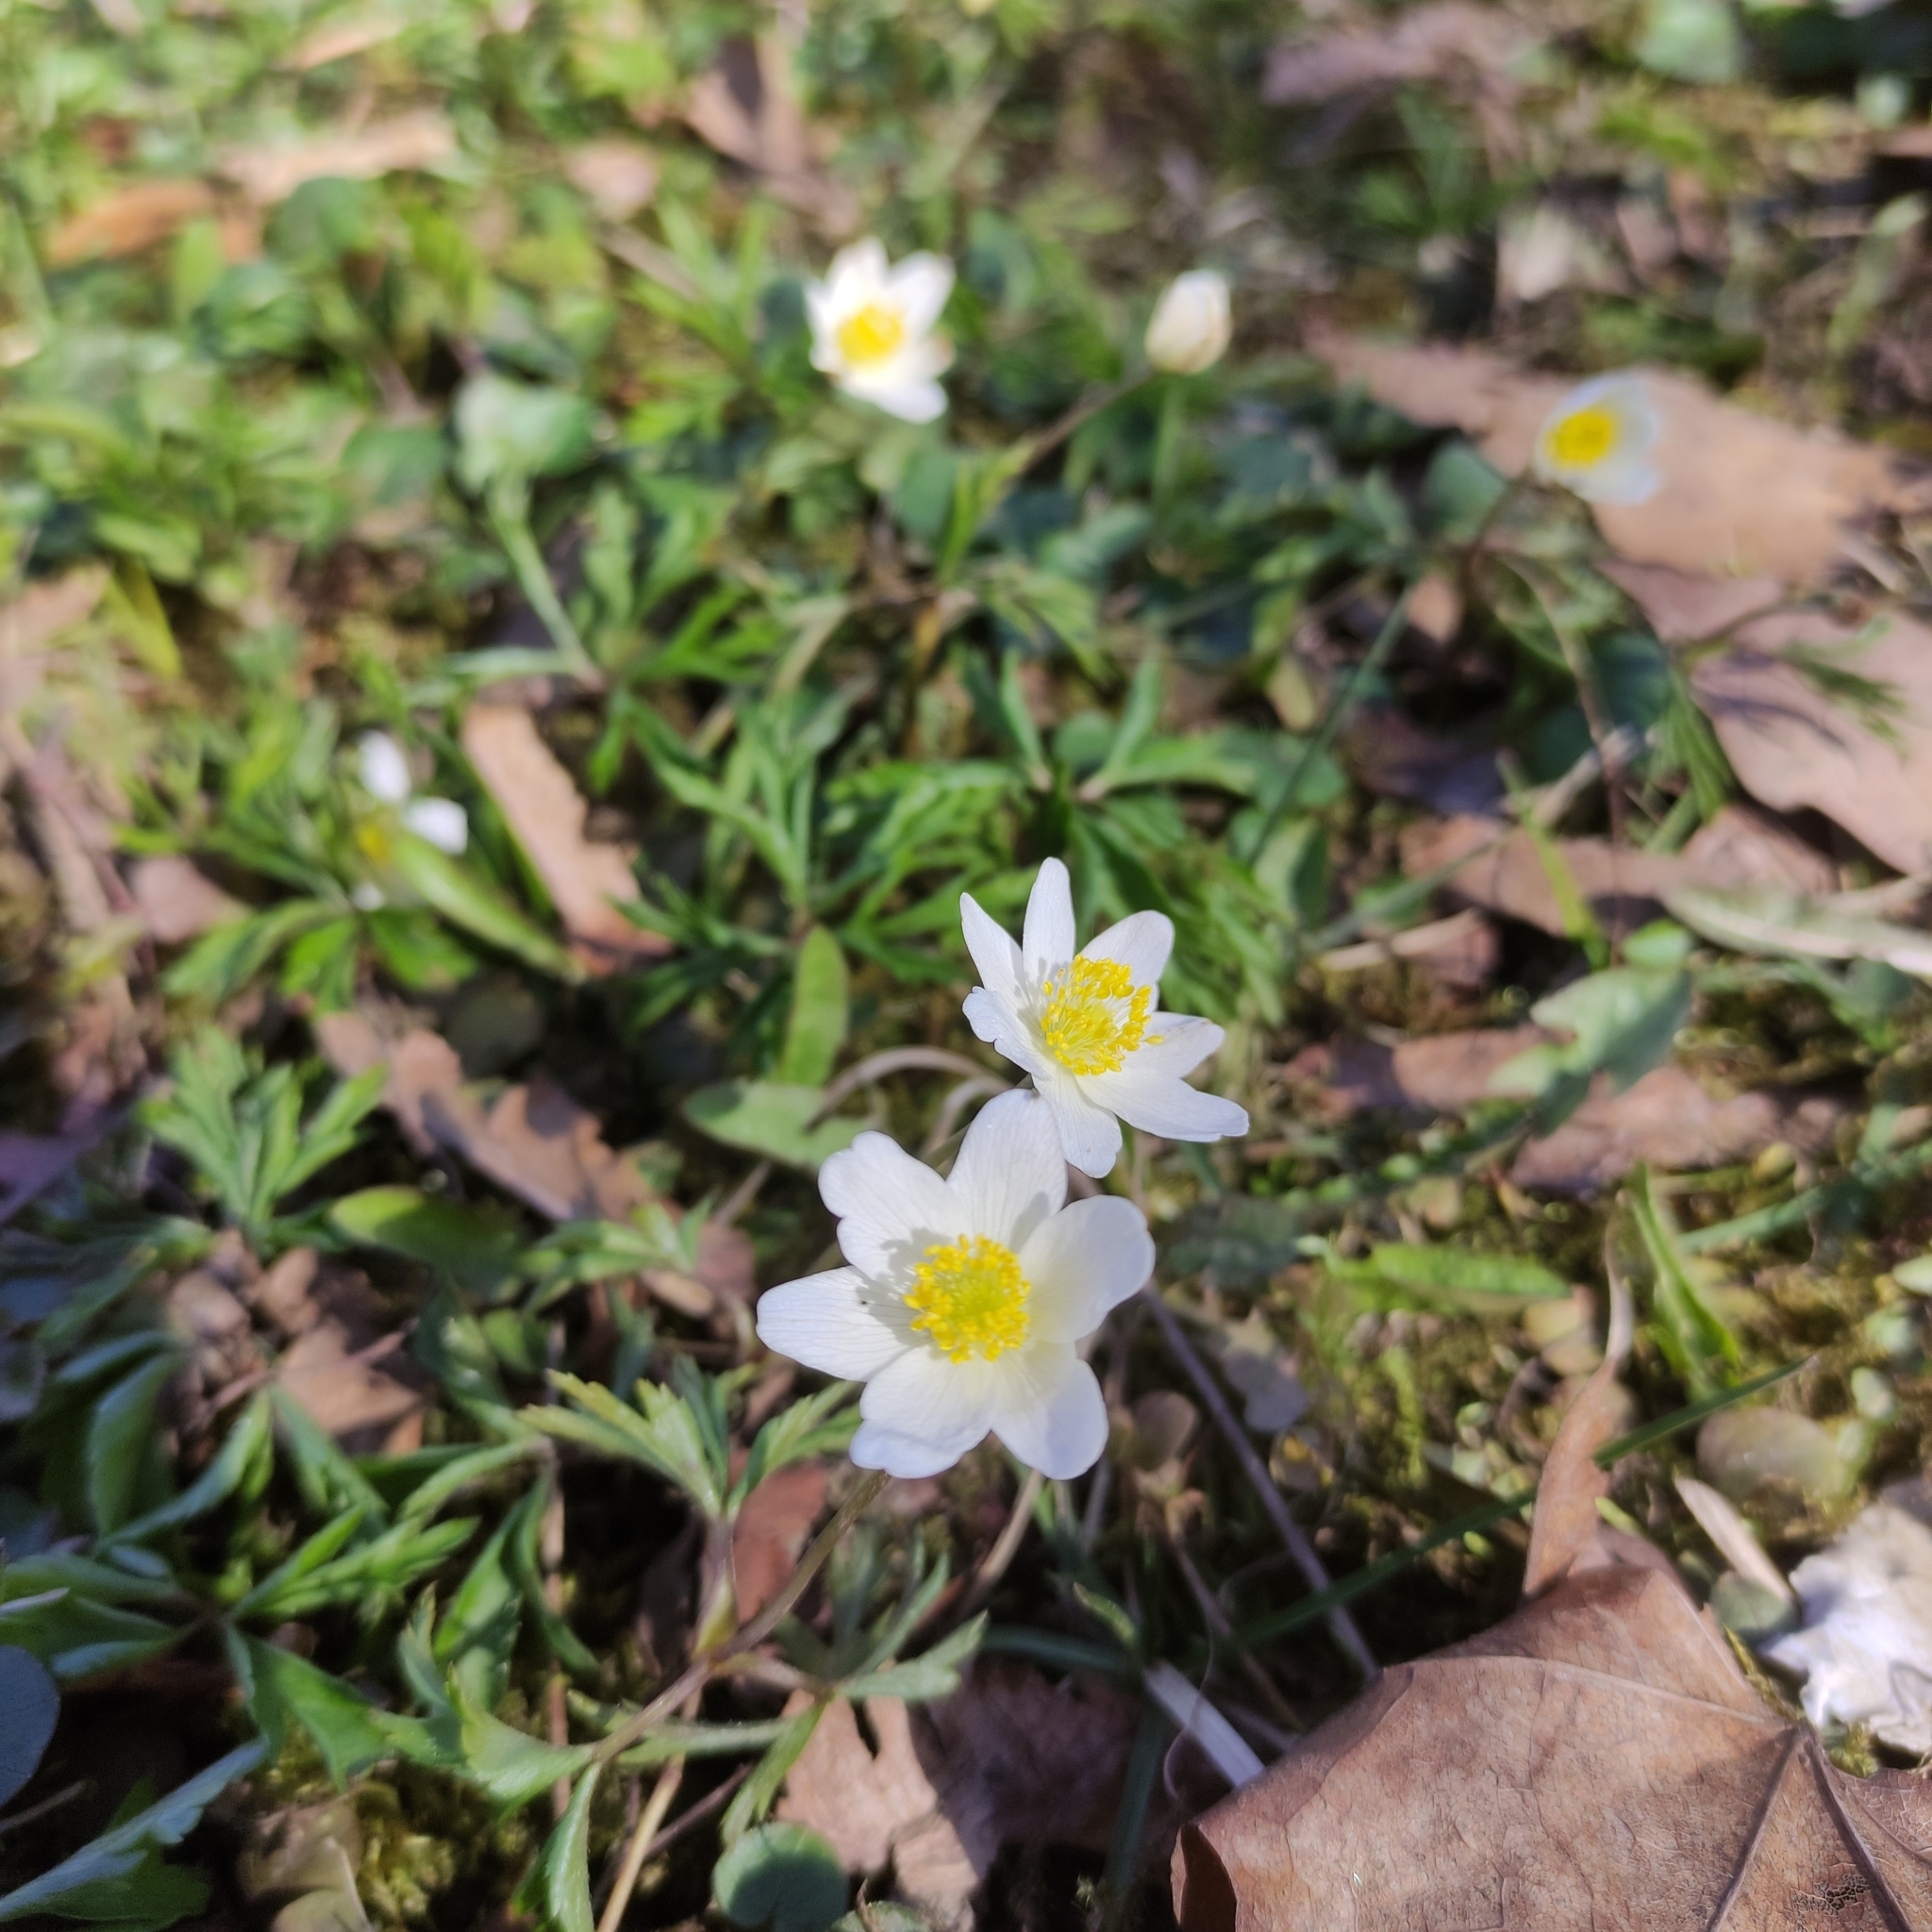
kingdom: Plantae
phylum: Tracheophyta
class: Magnoliopsida
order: Ranunculales
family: Ranunculaceae
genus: Anemone
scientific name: Anemone nemorosa
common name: Wood anemone
